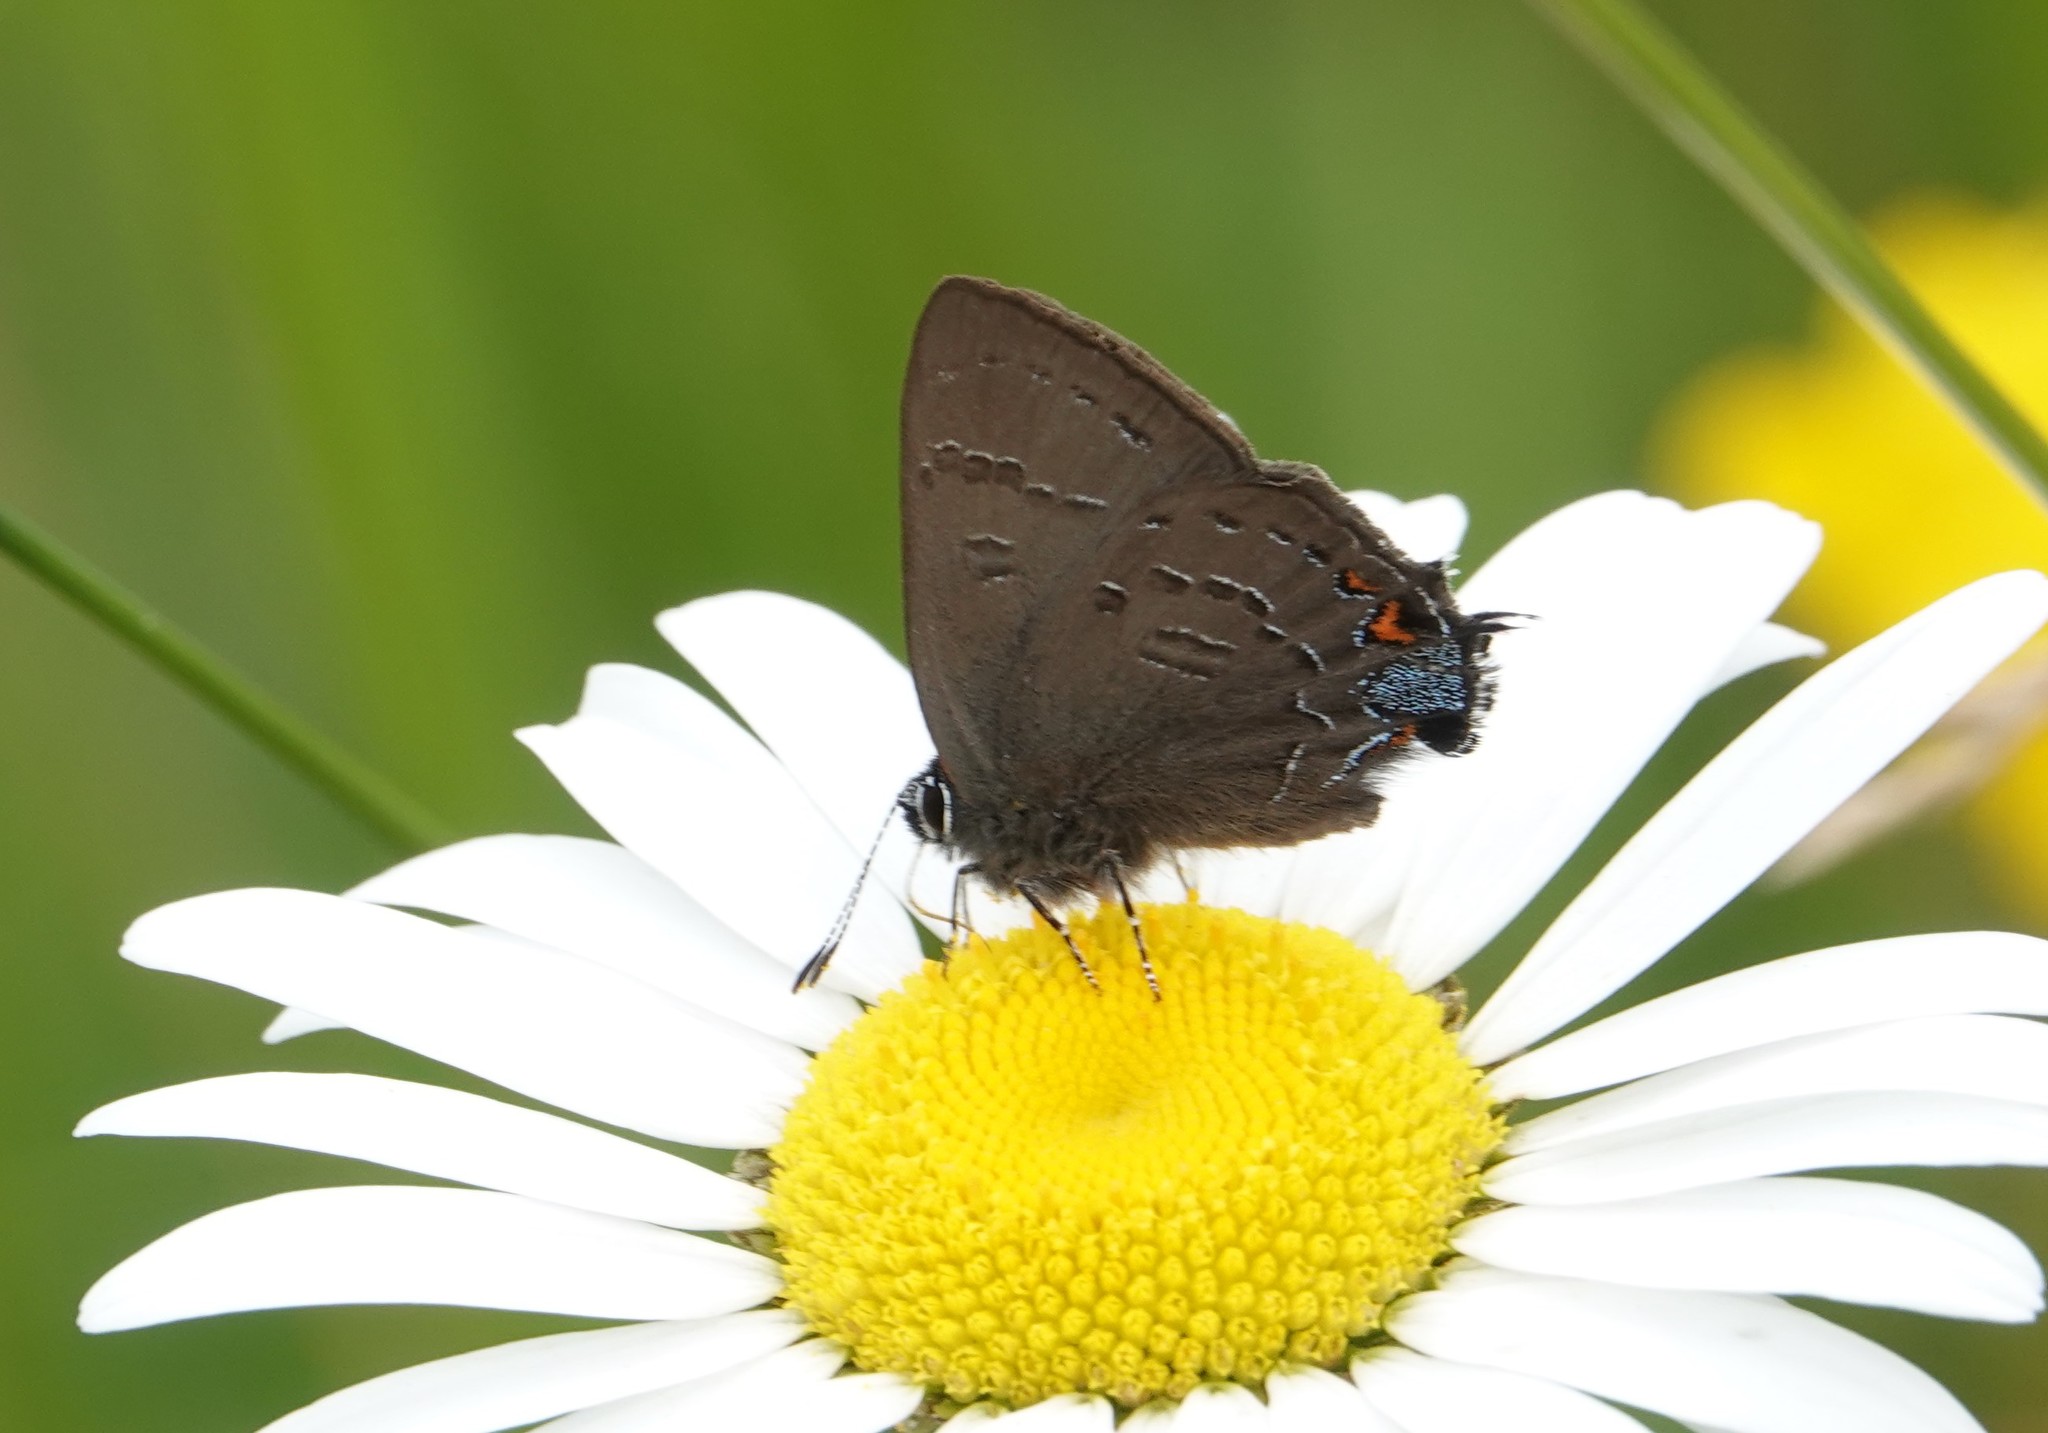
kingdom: Animalia
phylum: Arthropoda
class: Insecta
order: Lepidoptera
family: Lycaenidae
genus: Satyrium
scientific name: Satyrium calanus
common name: Banded hairstreak
